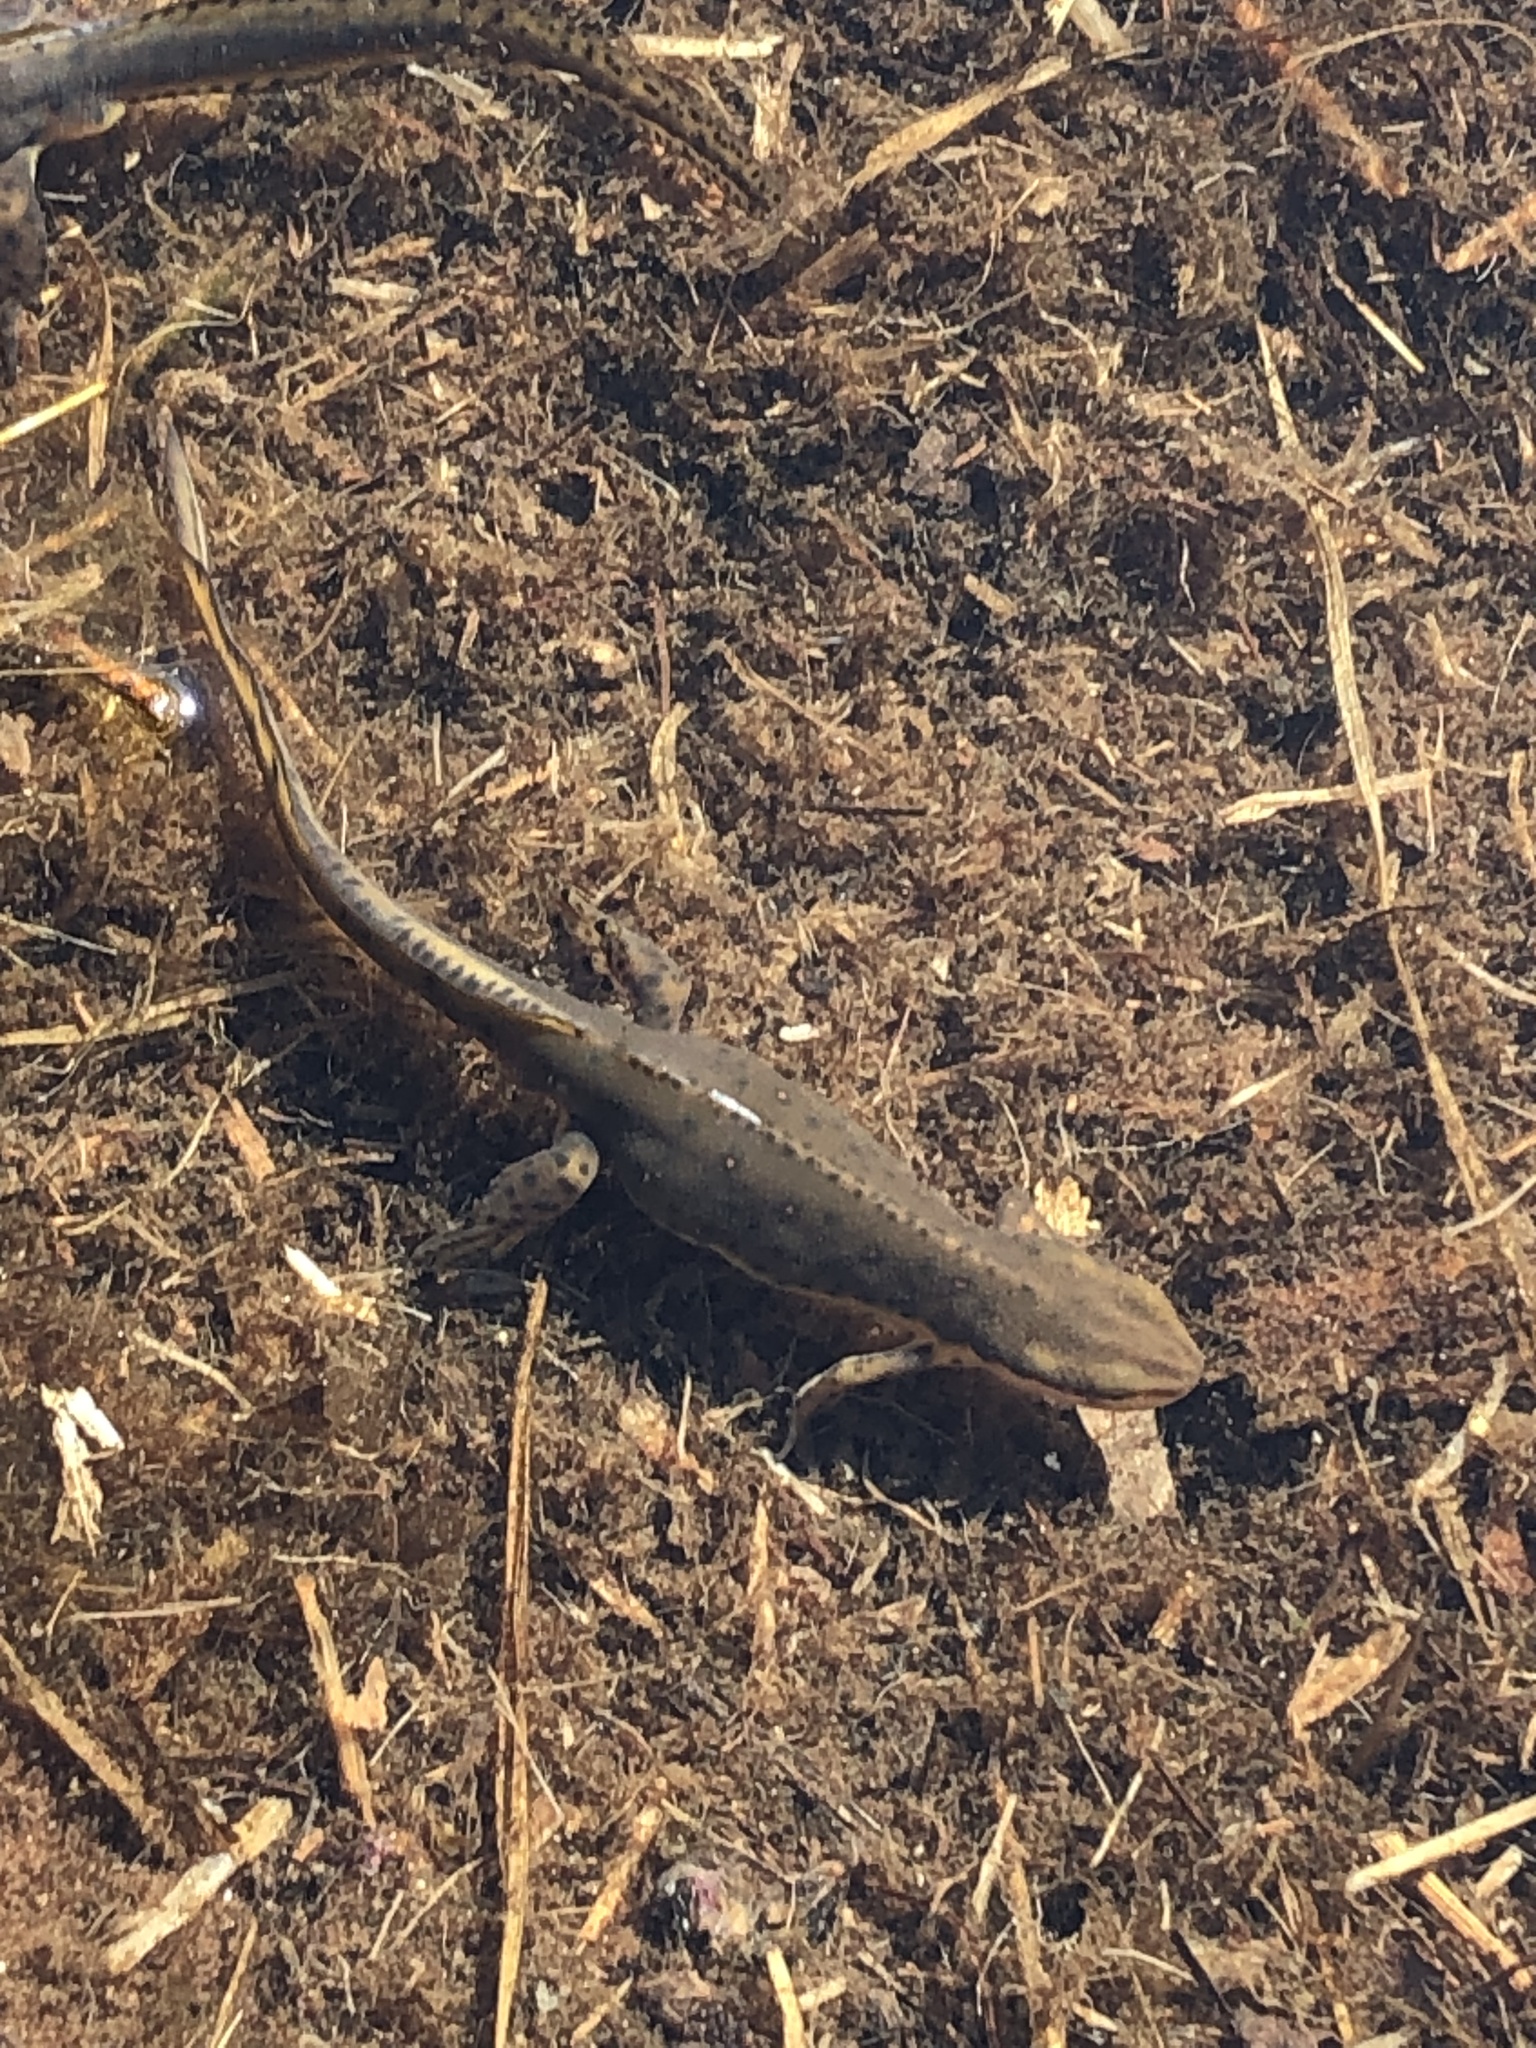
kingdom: Animalia
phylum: Chordata
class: Amphibia
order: Caudata
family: Salamandridae
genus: Notophthalmus
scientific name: Notophthalmus viridescens
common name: Eastern newt
